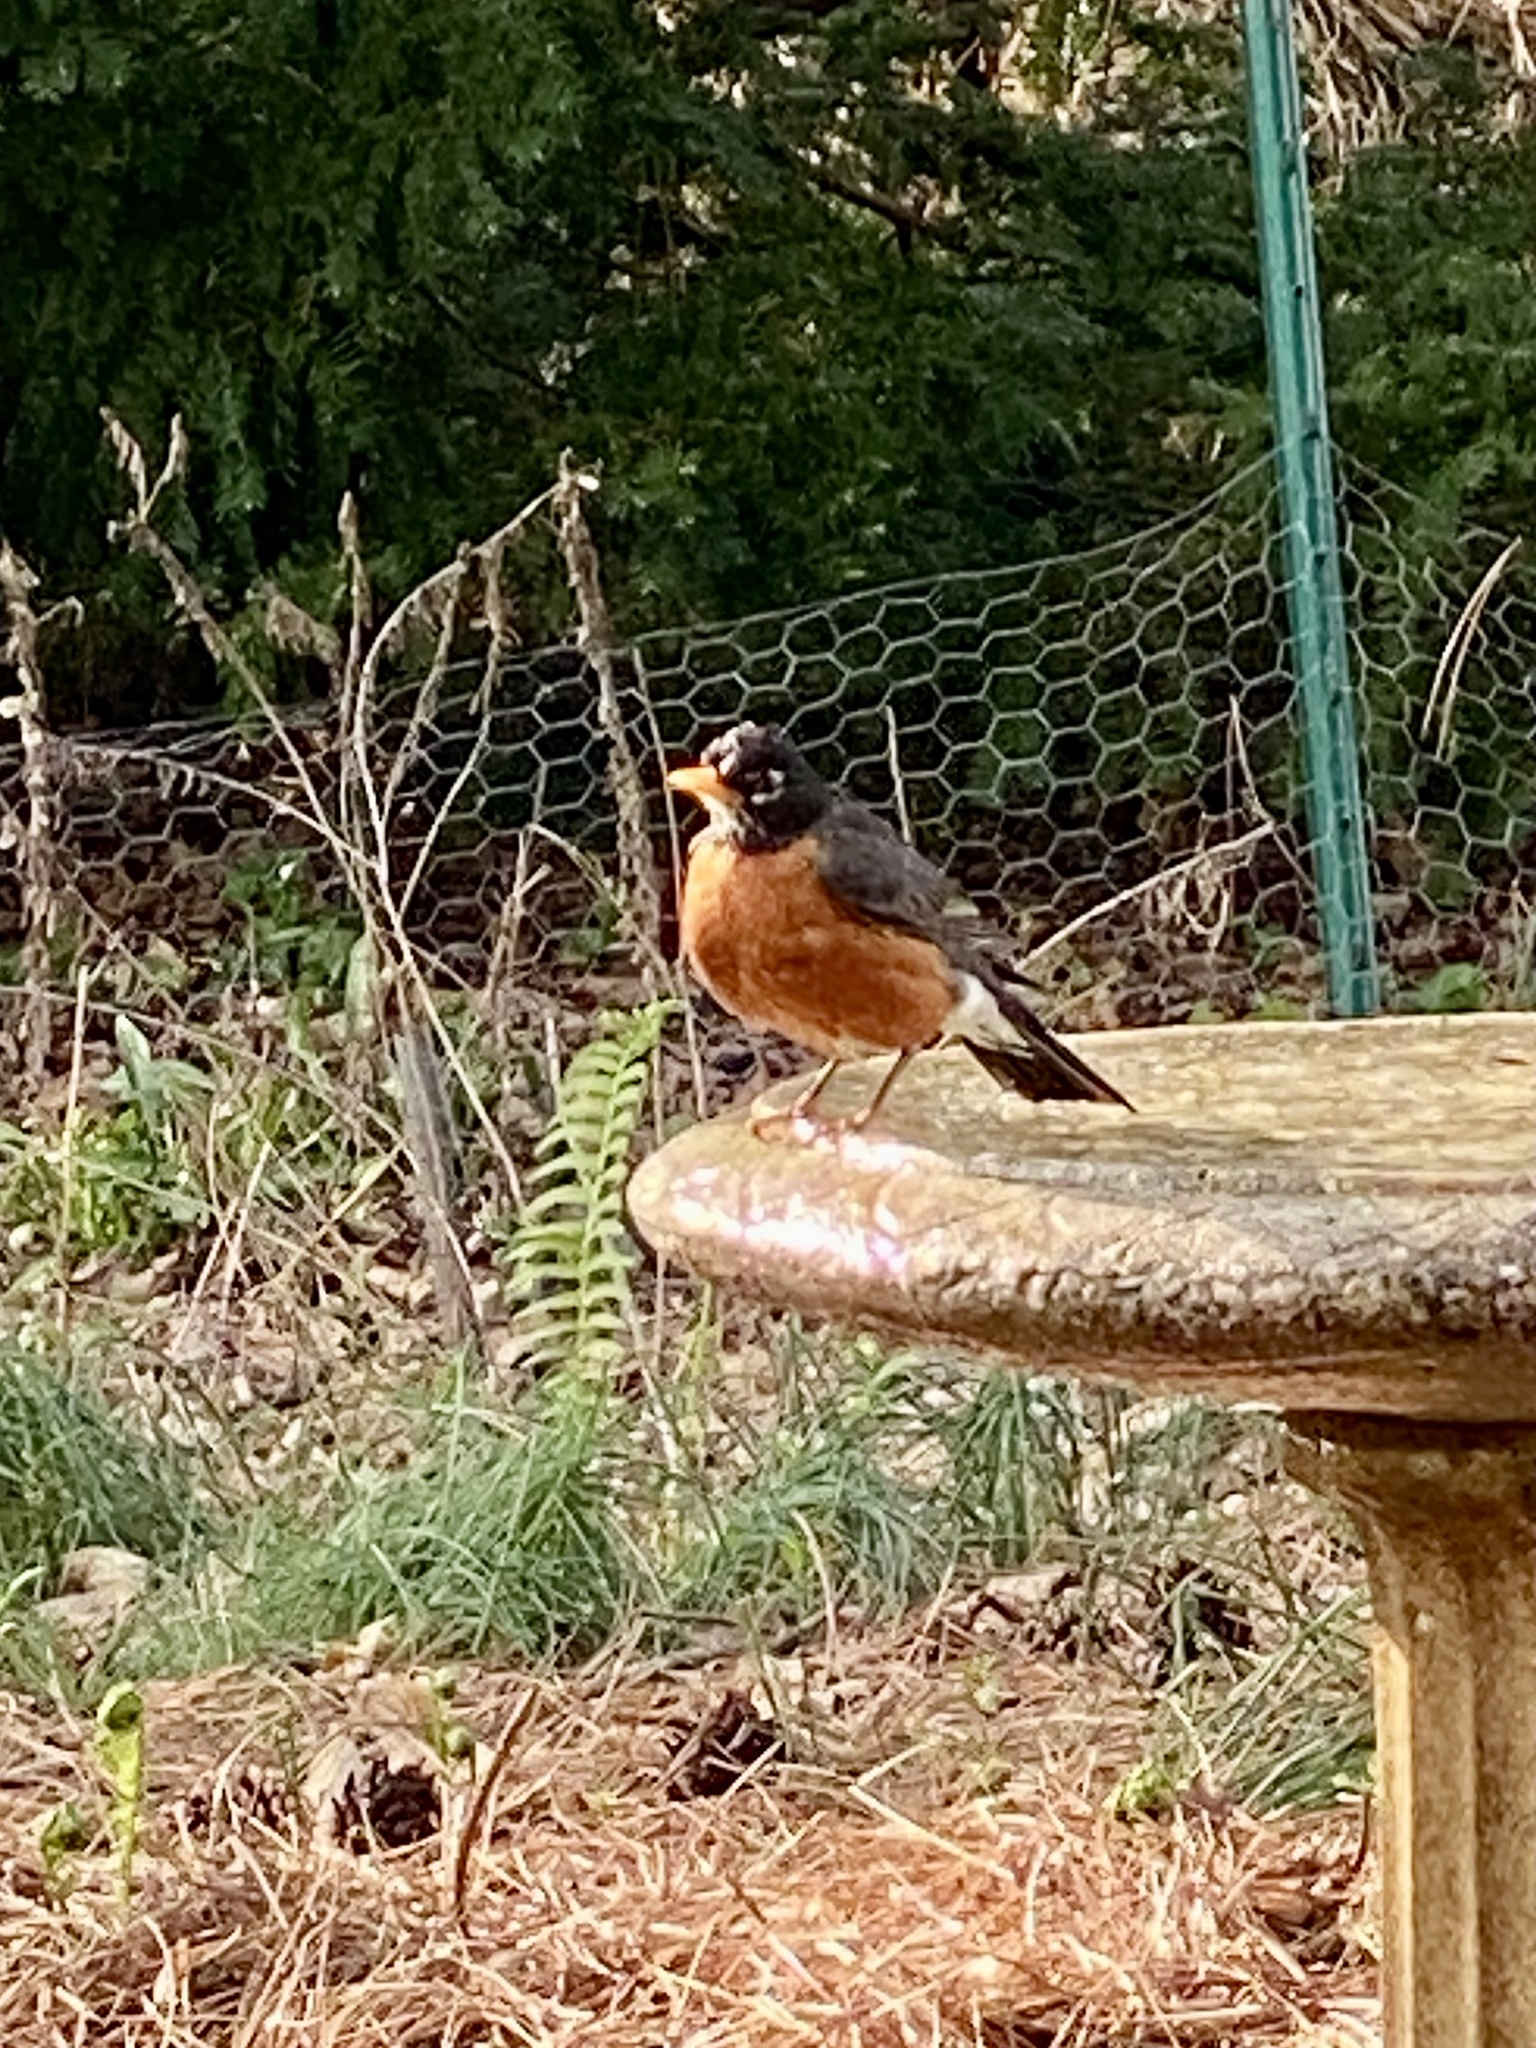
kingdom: Animalia
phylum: Chordata
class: Aves
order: Passeriformes
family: Turdidae
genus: Turdus
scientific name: Turdus migratorius
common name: American robin
